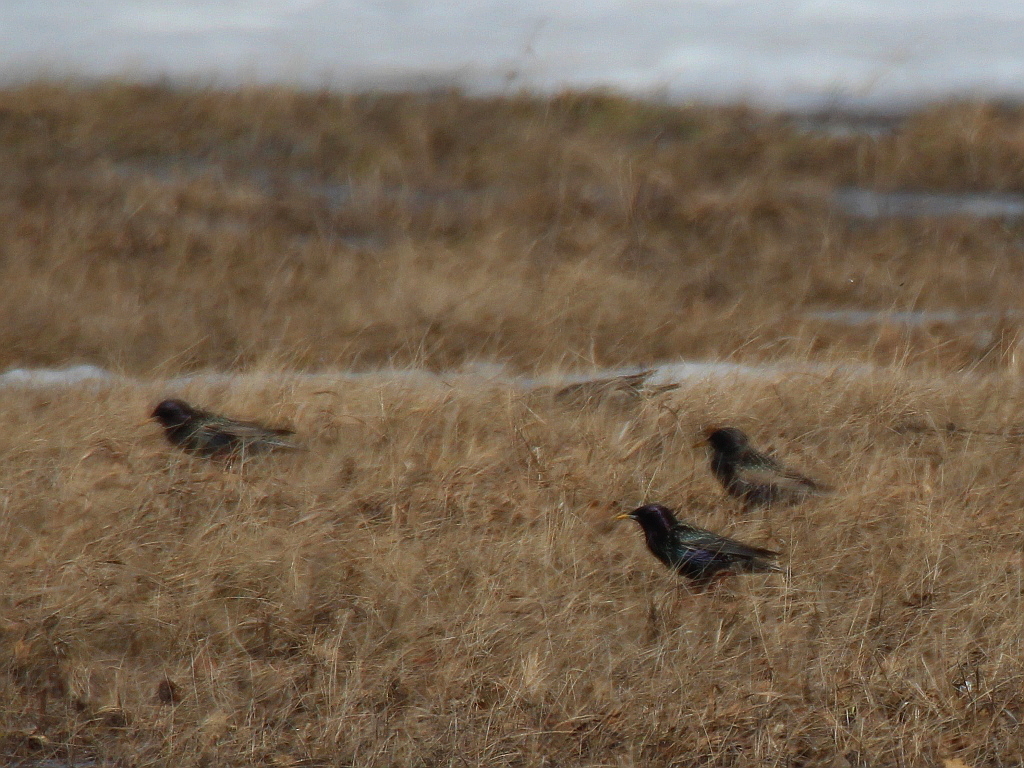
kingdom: Animalia
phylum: Chordata
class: Aves
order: Passeriformes
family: Sturnidae
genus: Sturnus
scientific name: Sturnus vulgaris
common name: Common starling
